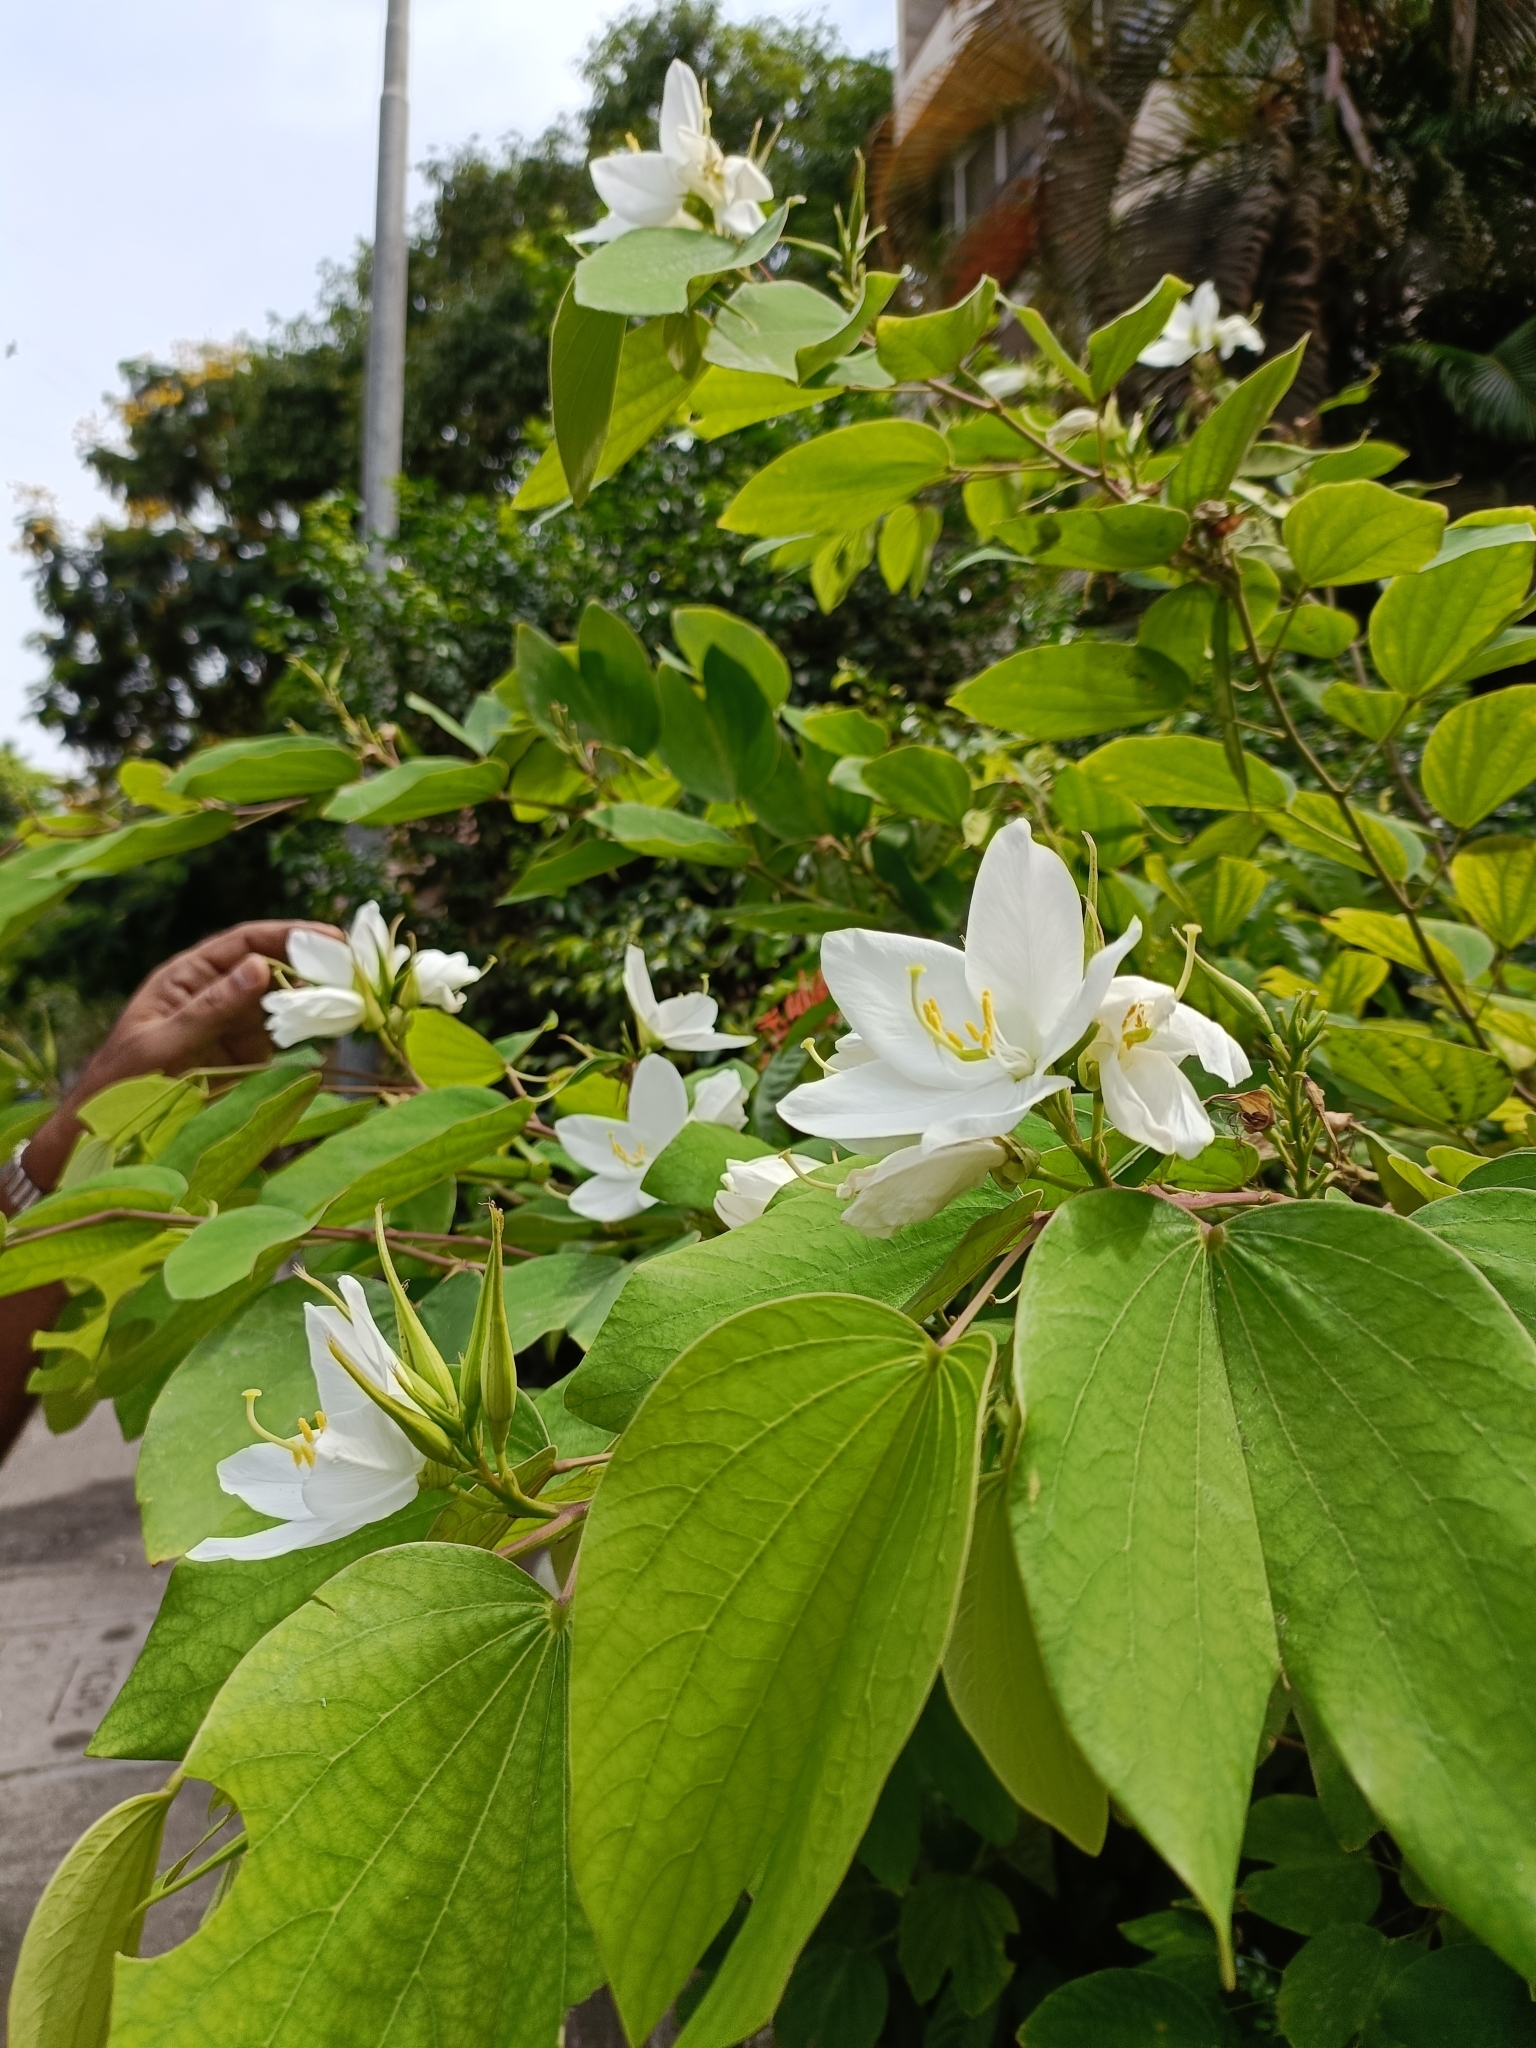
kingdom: Plantae
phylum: Tracheophyta
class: Magnoliopsida
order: Fabales
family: Fabaceae
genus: Bauhinia
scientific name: Bauhinia acuminata
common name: Dwarf white bauhinia
